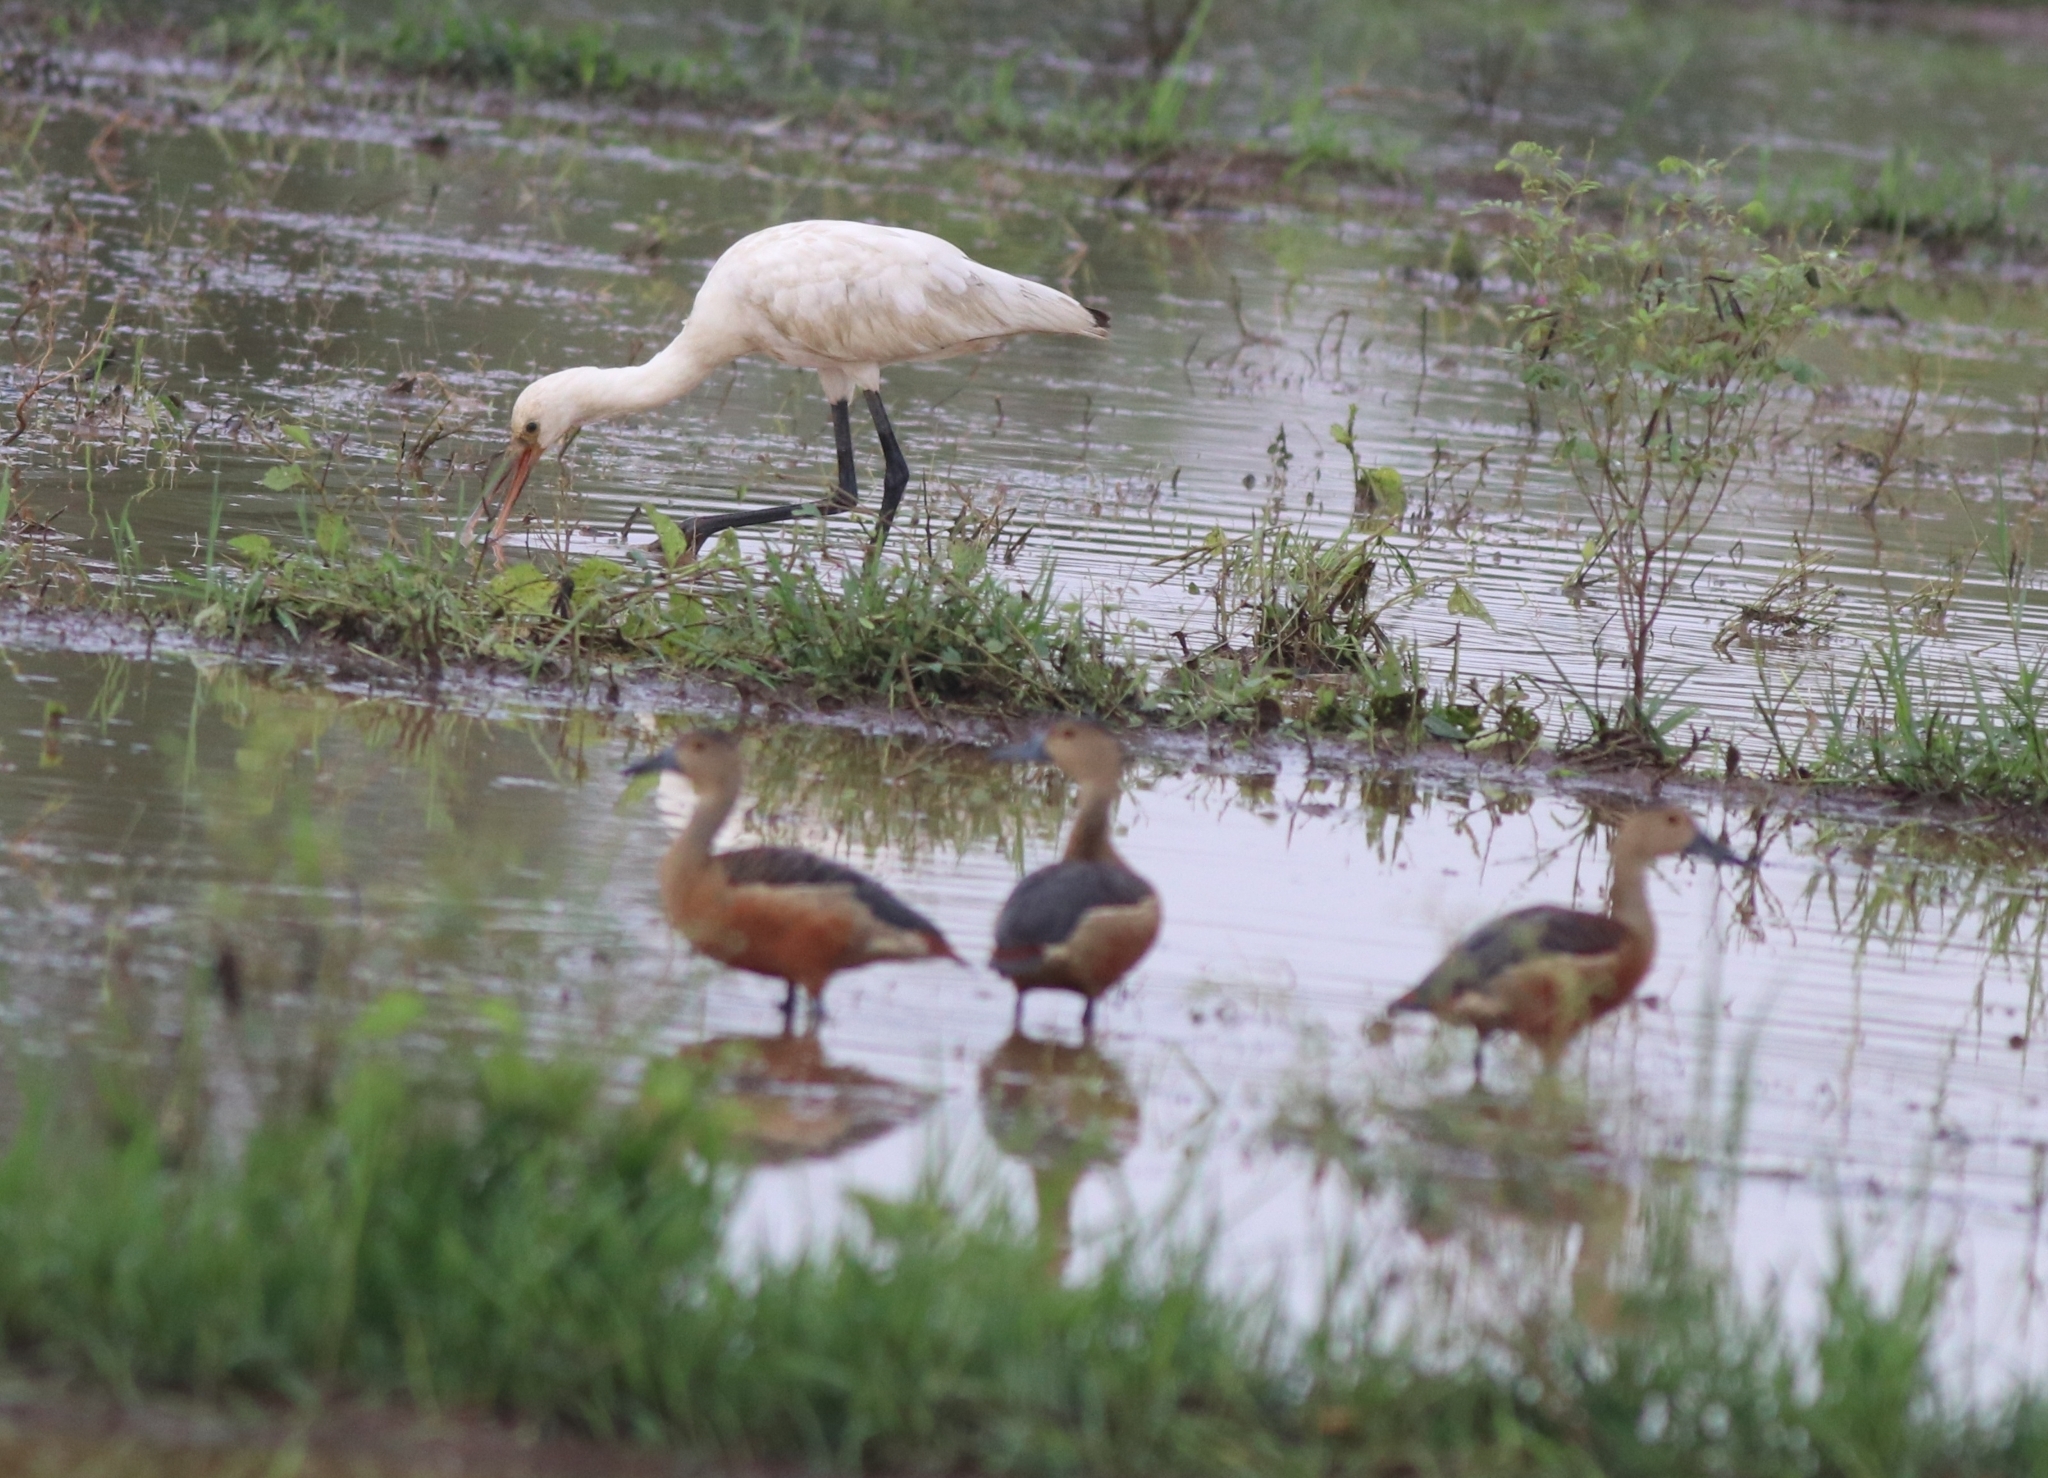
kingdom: Animalia
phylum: Chordata
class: Aves
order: Anseriformes
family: Anatidae
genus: Dendrocygna
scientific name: Dendrocygna javanica
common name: Lesser whistling-duck
